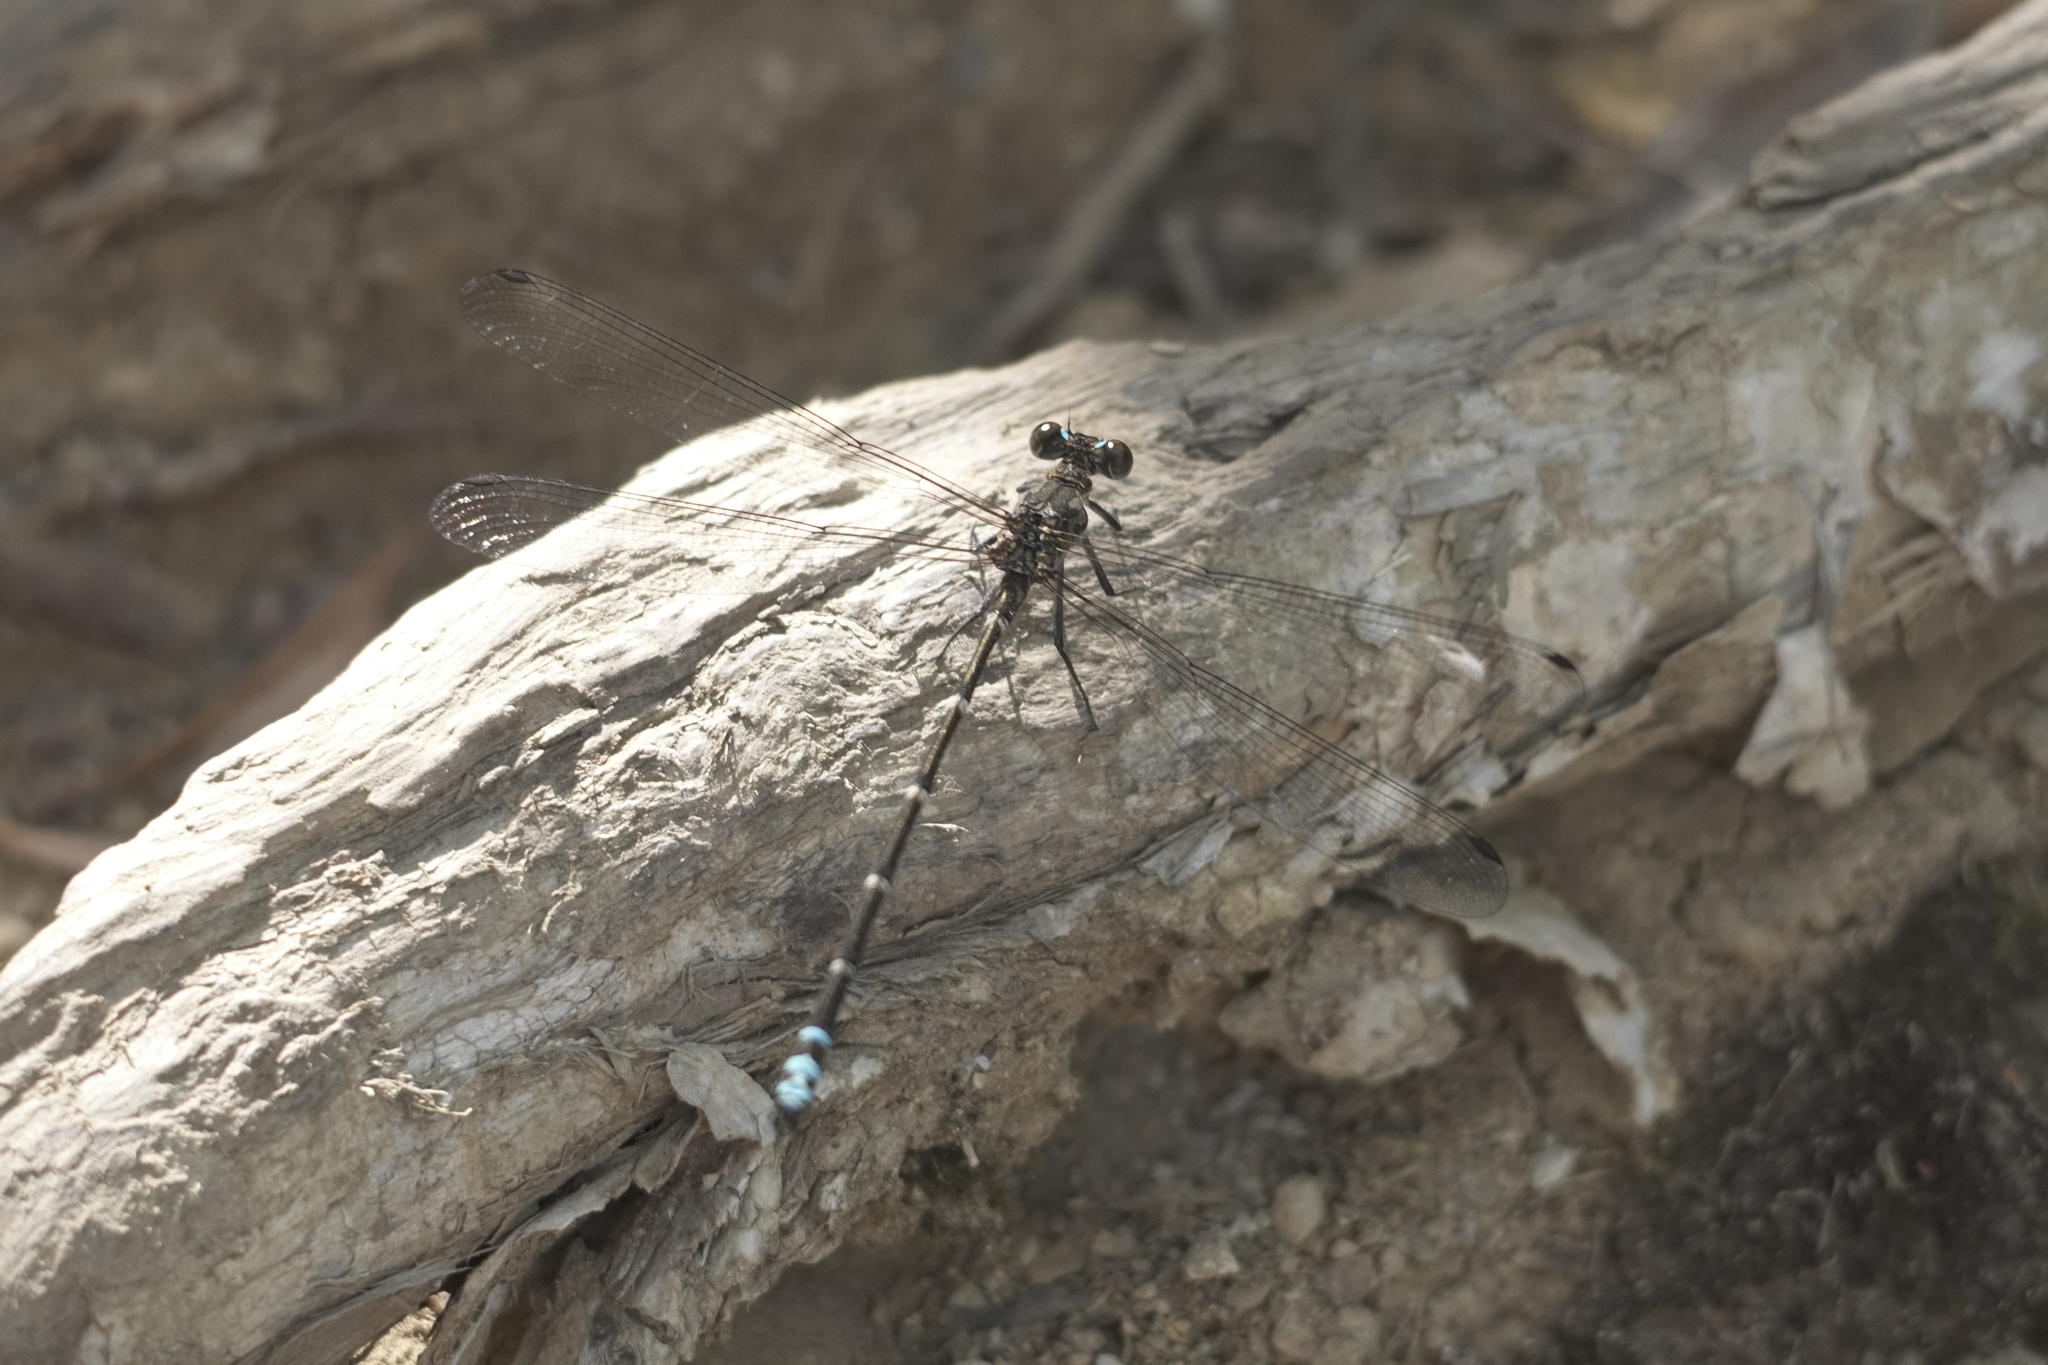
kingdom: Animalia
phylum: Arthropoda
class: Insecta
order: Odonata
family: Argiolestidae
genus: Caledopteryx
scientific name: Caledopteryx maculata
